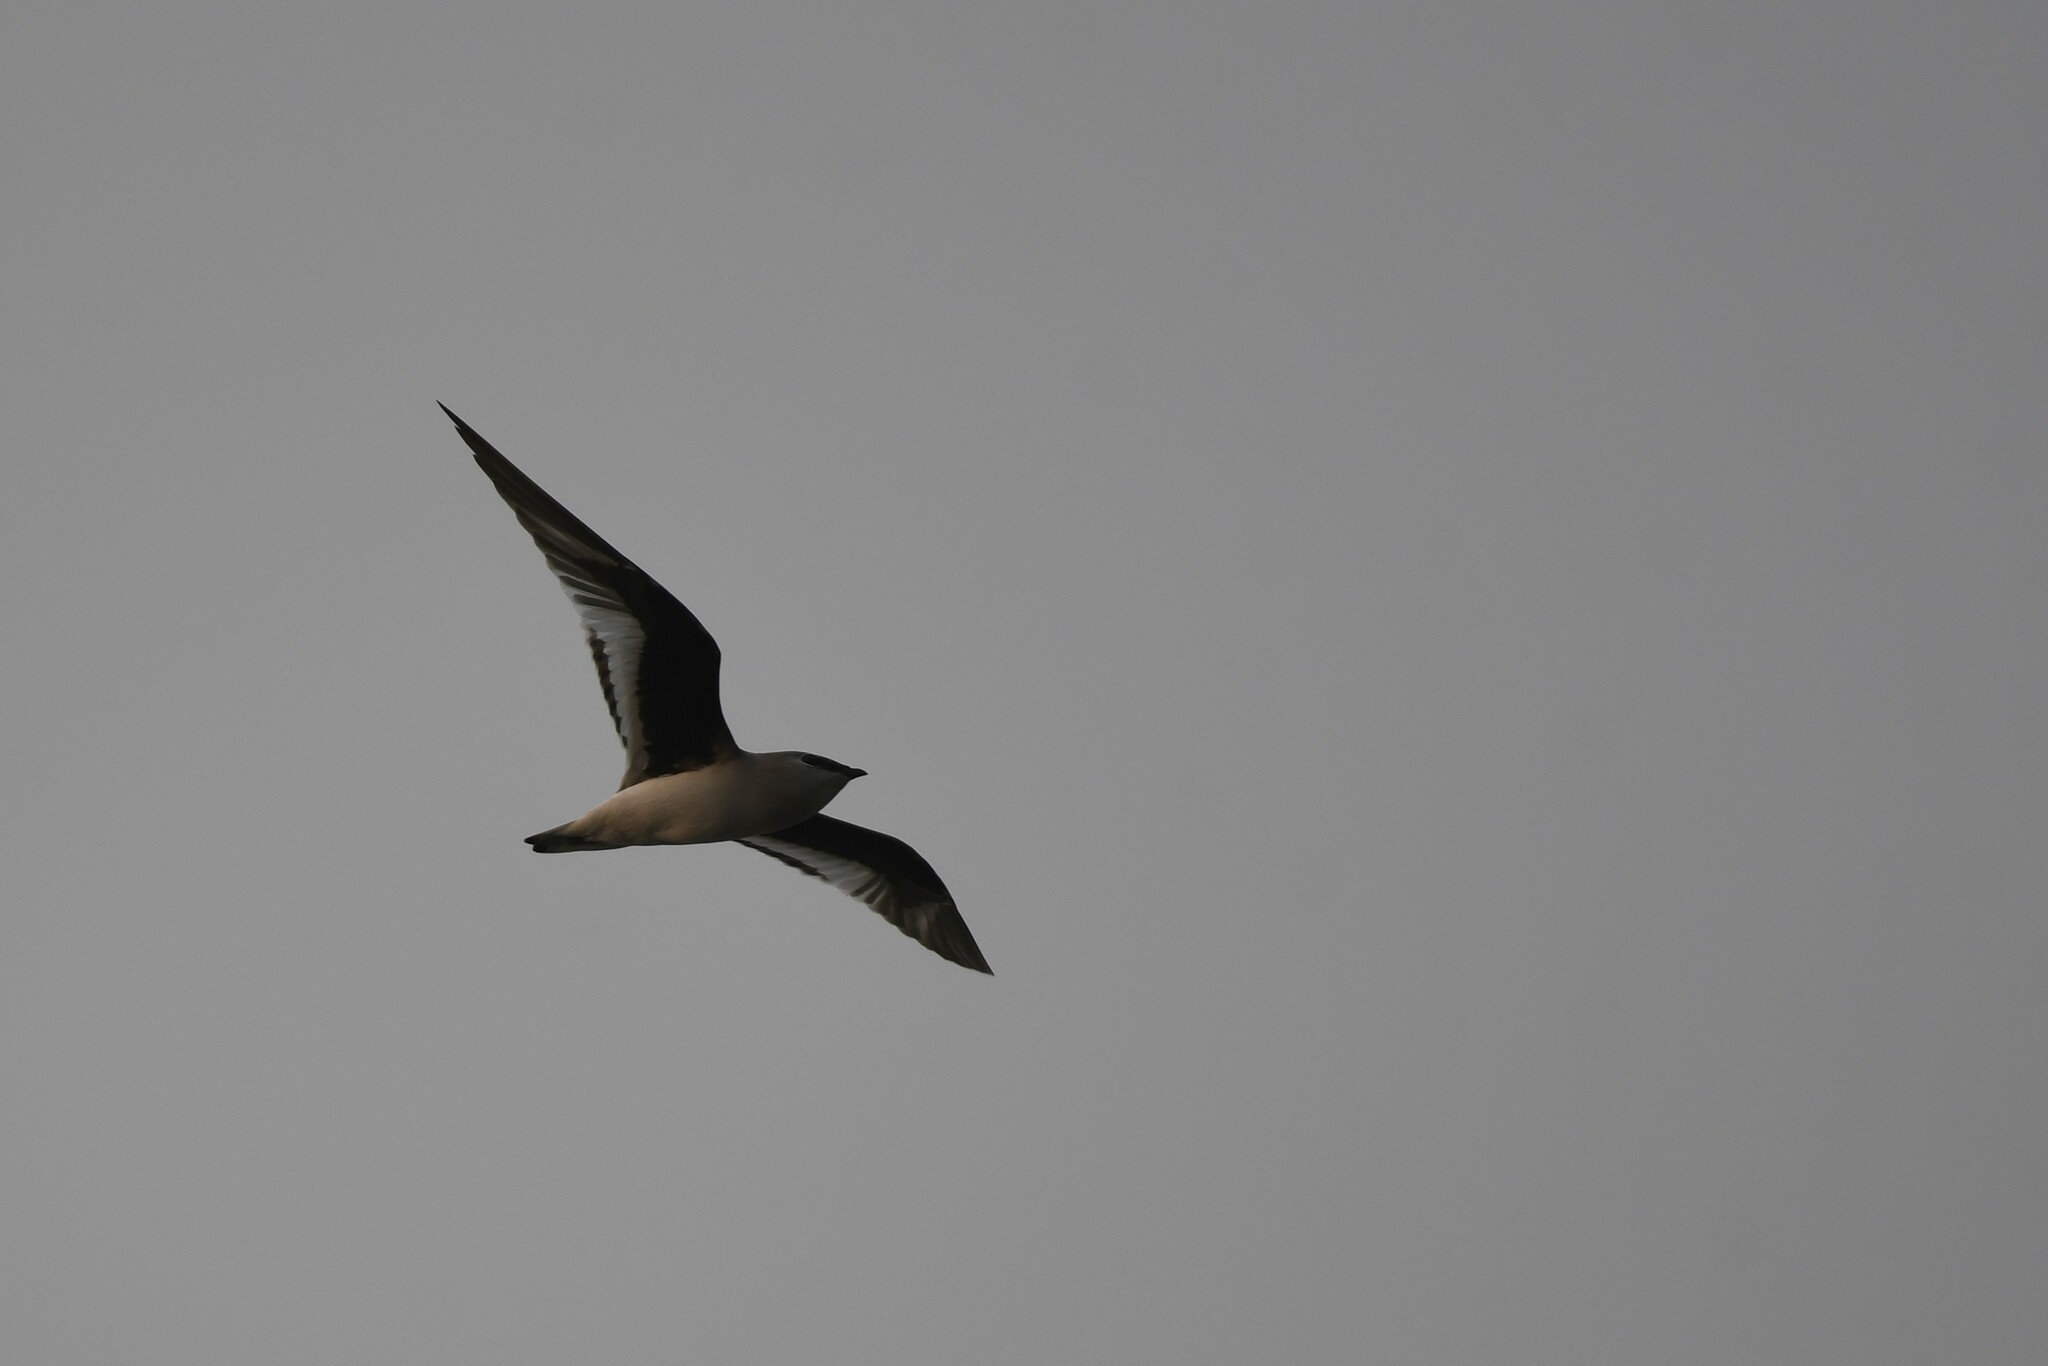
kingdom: Animalia
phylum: Chordata
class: Aves
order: Charadriiformes
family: Glareolidae
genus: Glareola
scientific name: Glareola lactea
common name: Small pratincole
